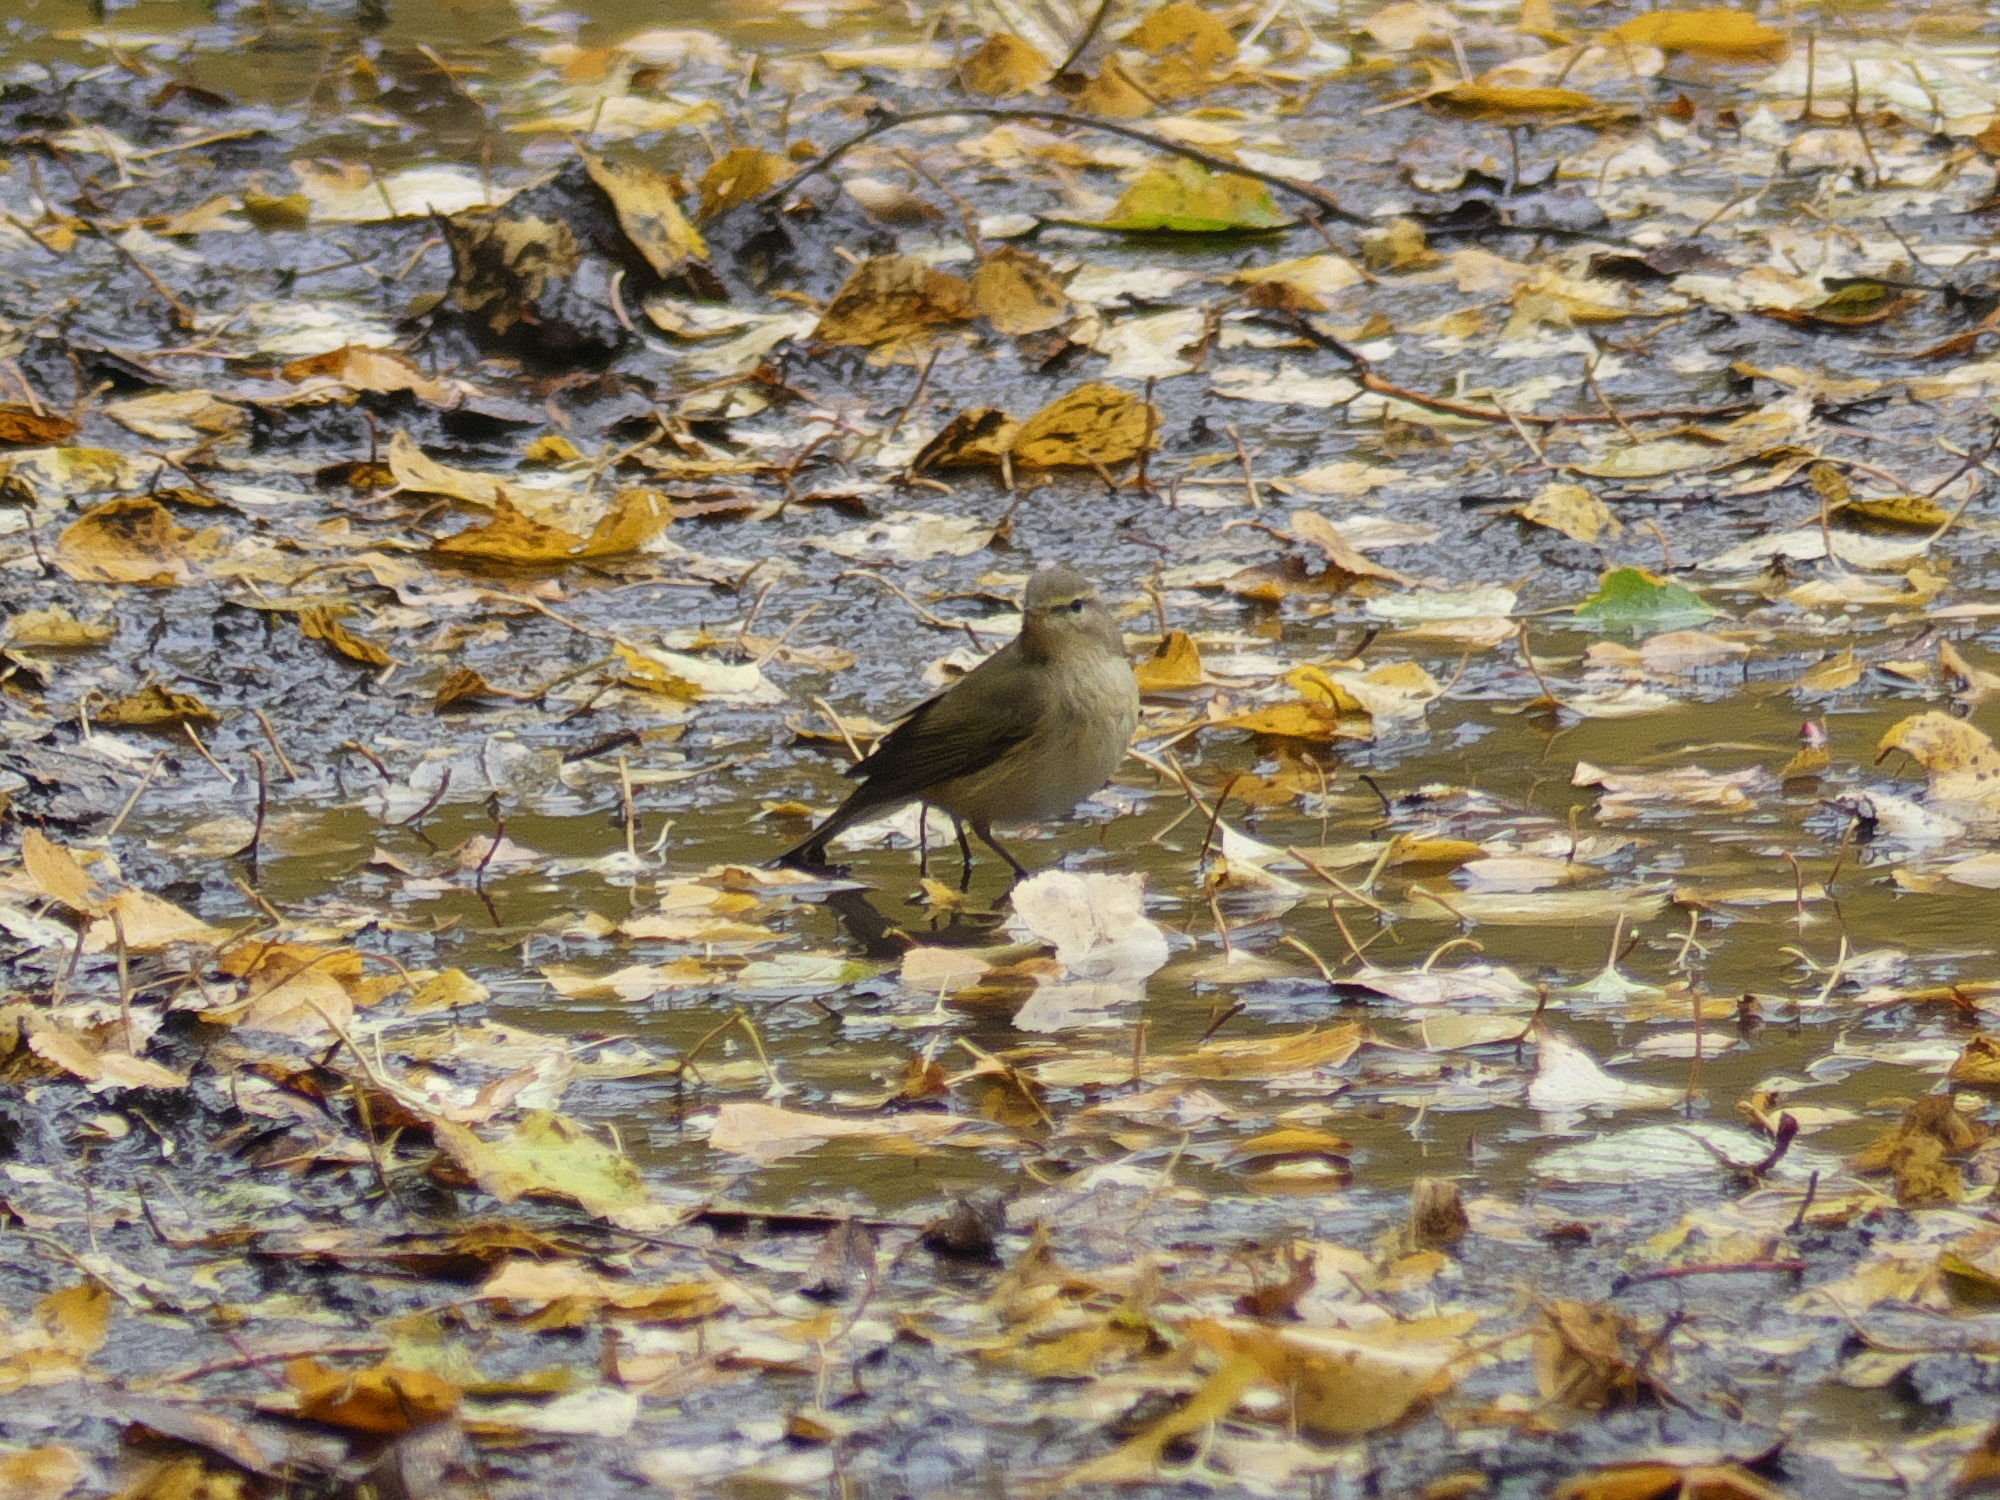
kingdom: Animalia
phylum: Chordata
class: Aves
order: Passeriformes
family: Phylloscopidae
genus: Phylloscopus
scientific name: Phylloscopus collybita
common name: Common chiffchaff
